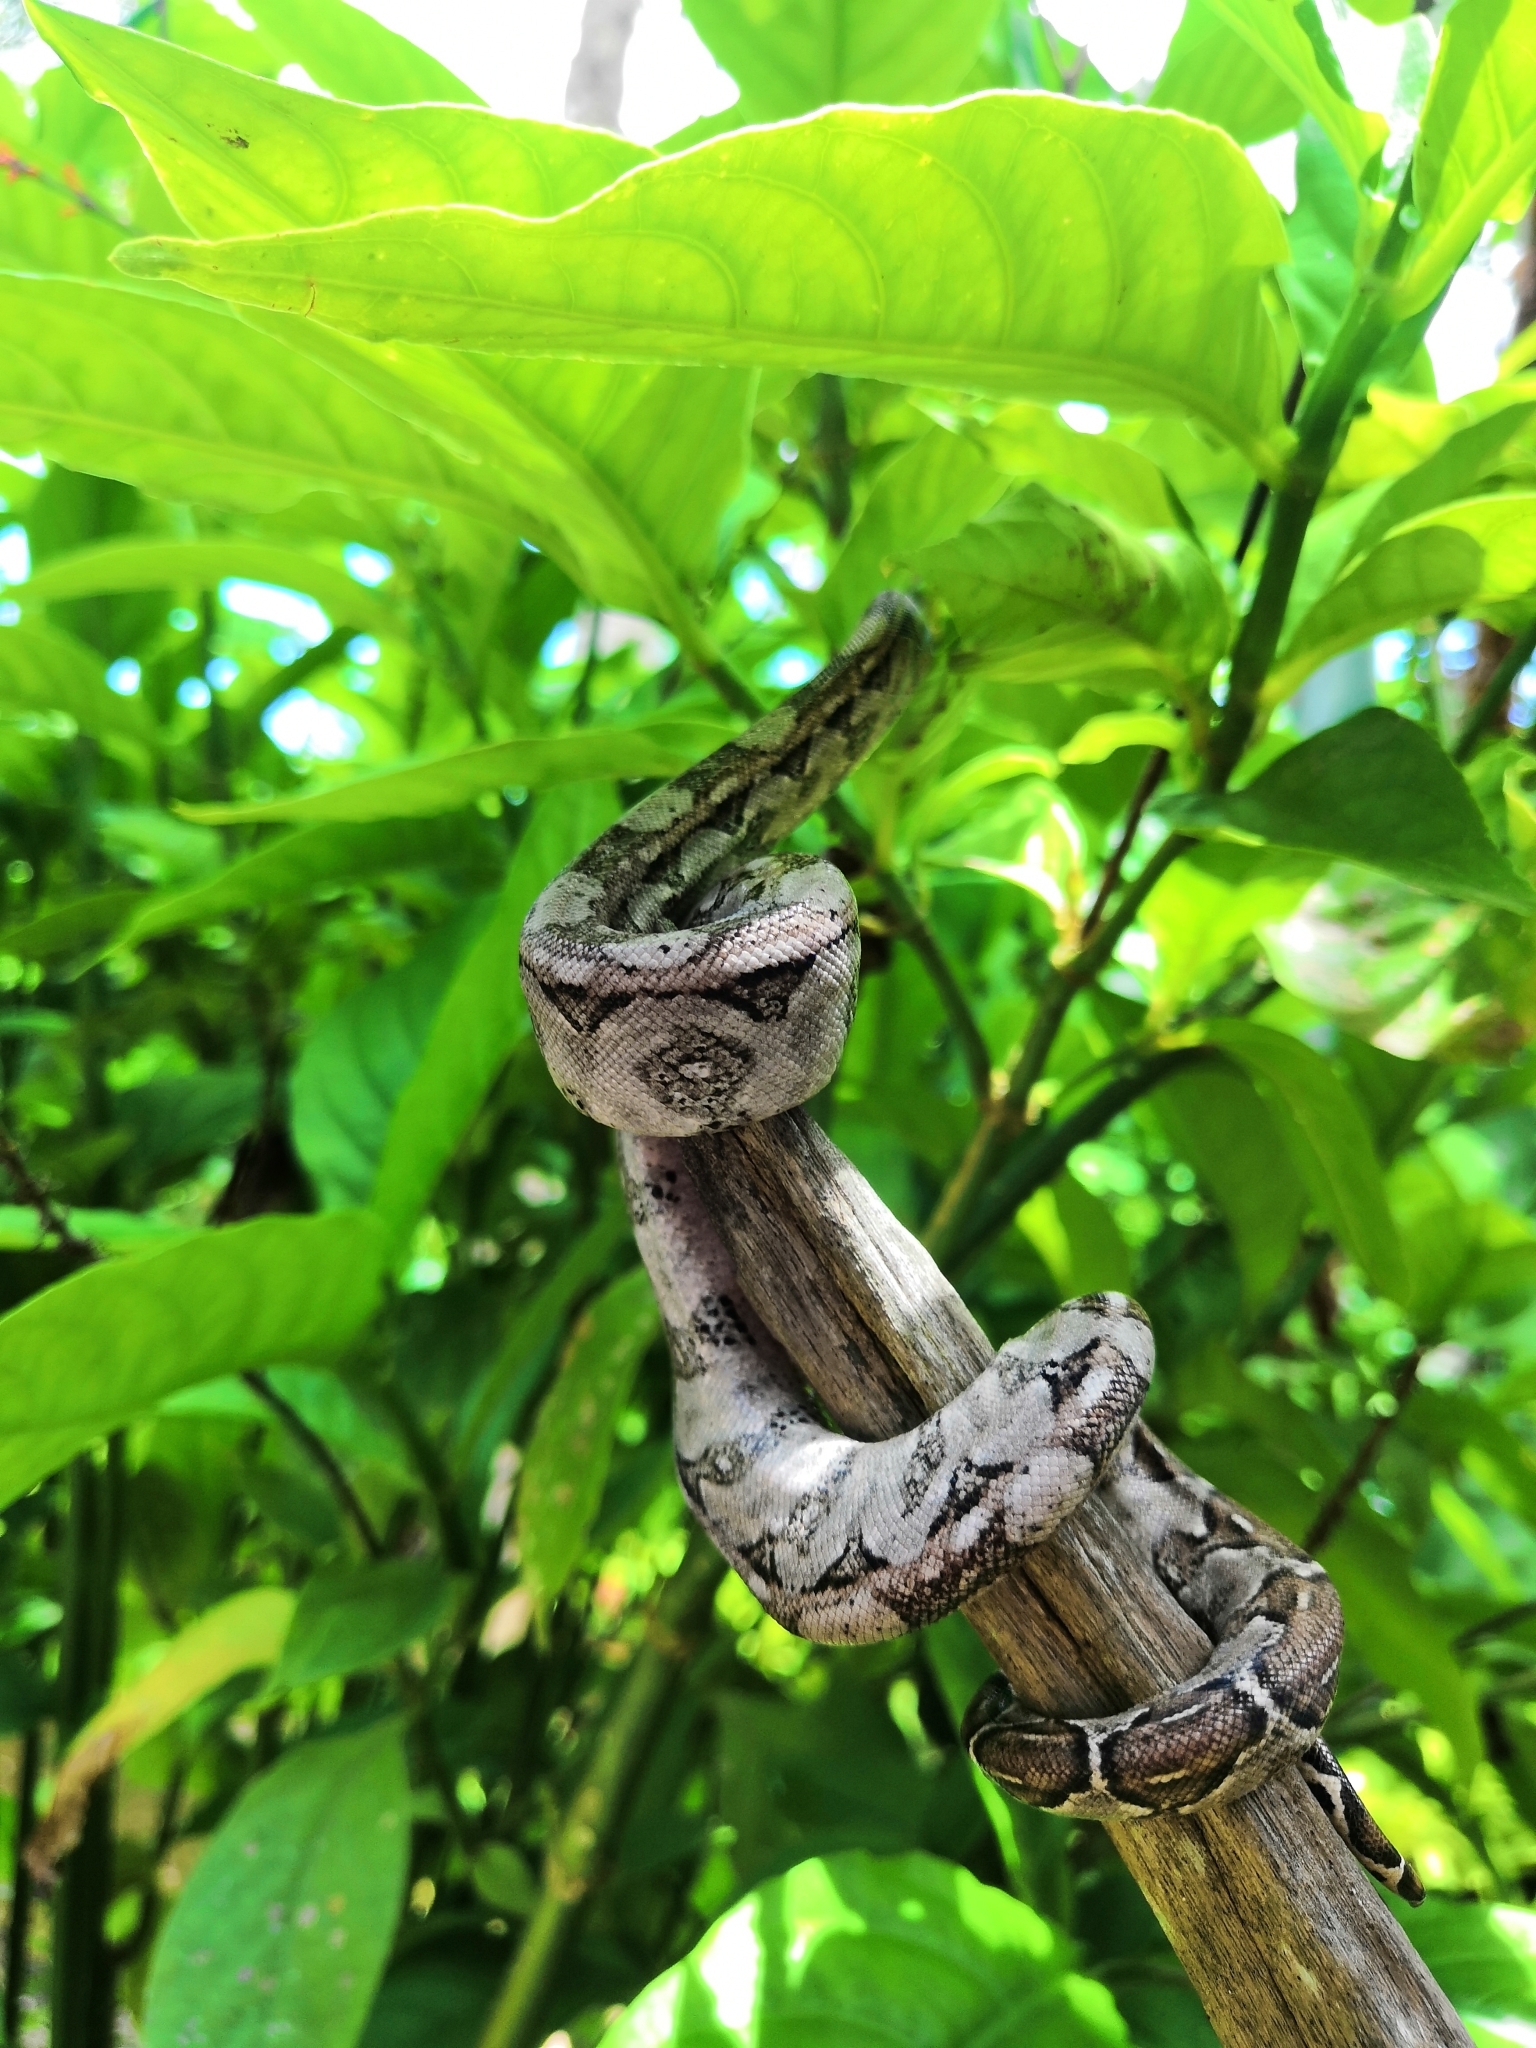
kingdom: Animalia
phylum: Chordata
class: Squamata
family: Boidae
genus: Boa
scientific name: Boa
